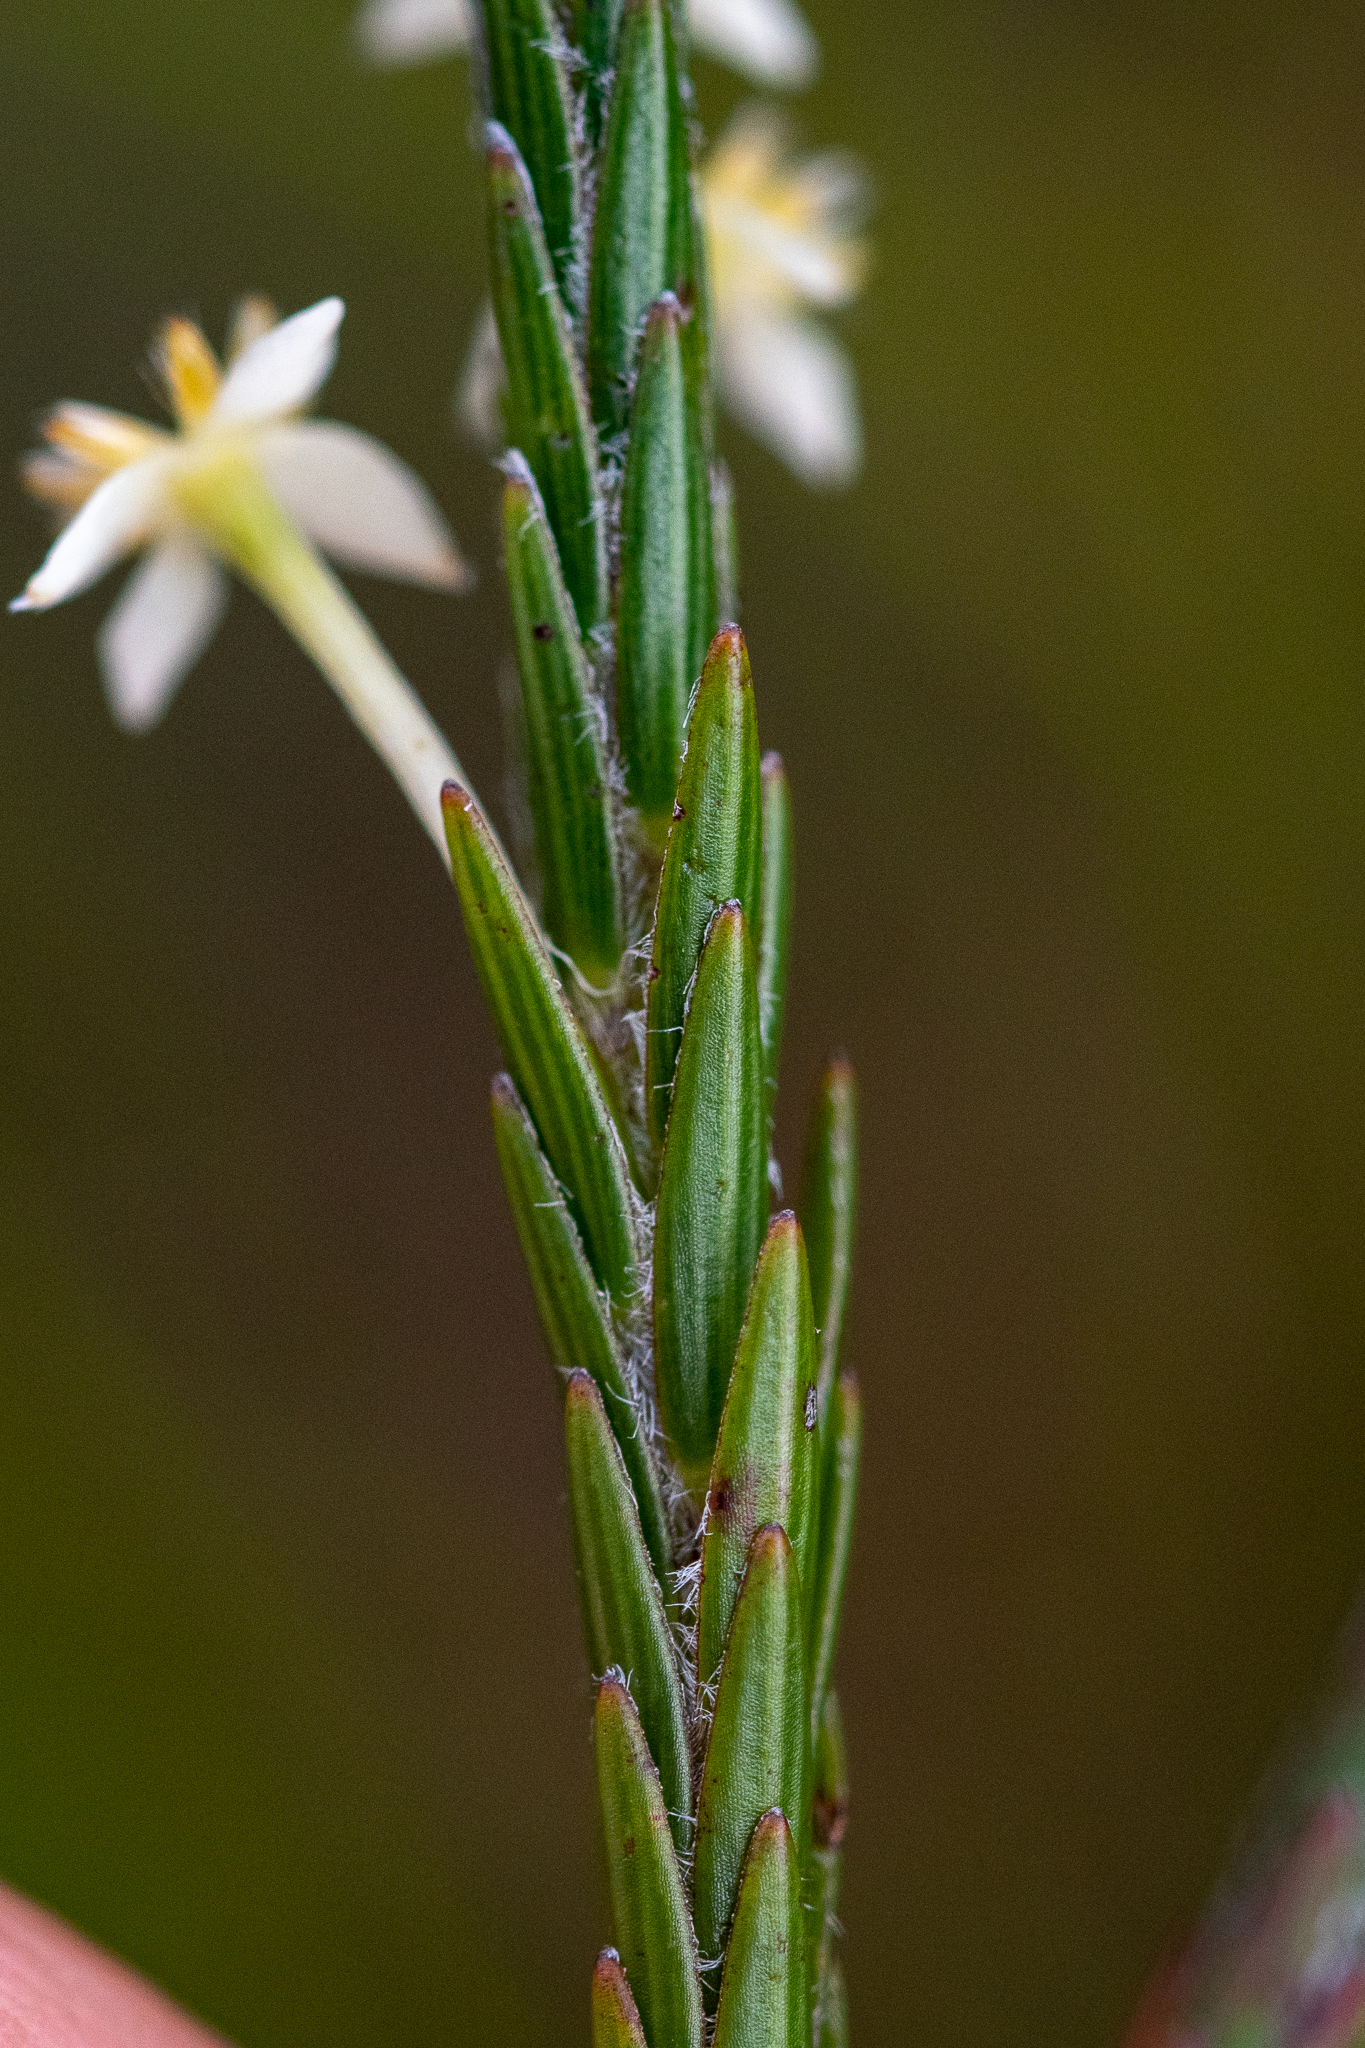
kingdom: Plantae
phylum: Tracheophyta
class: Magnoliopsida
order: Malvales
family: Thymelaeaceae
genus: Struthiola
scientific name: Struthiola ciliata
